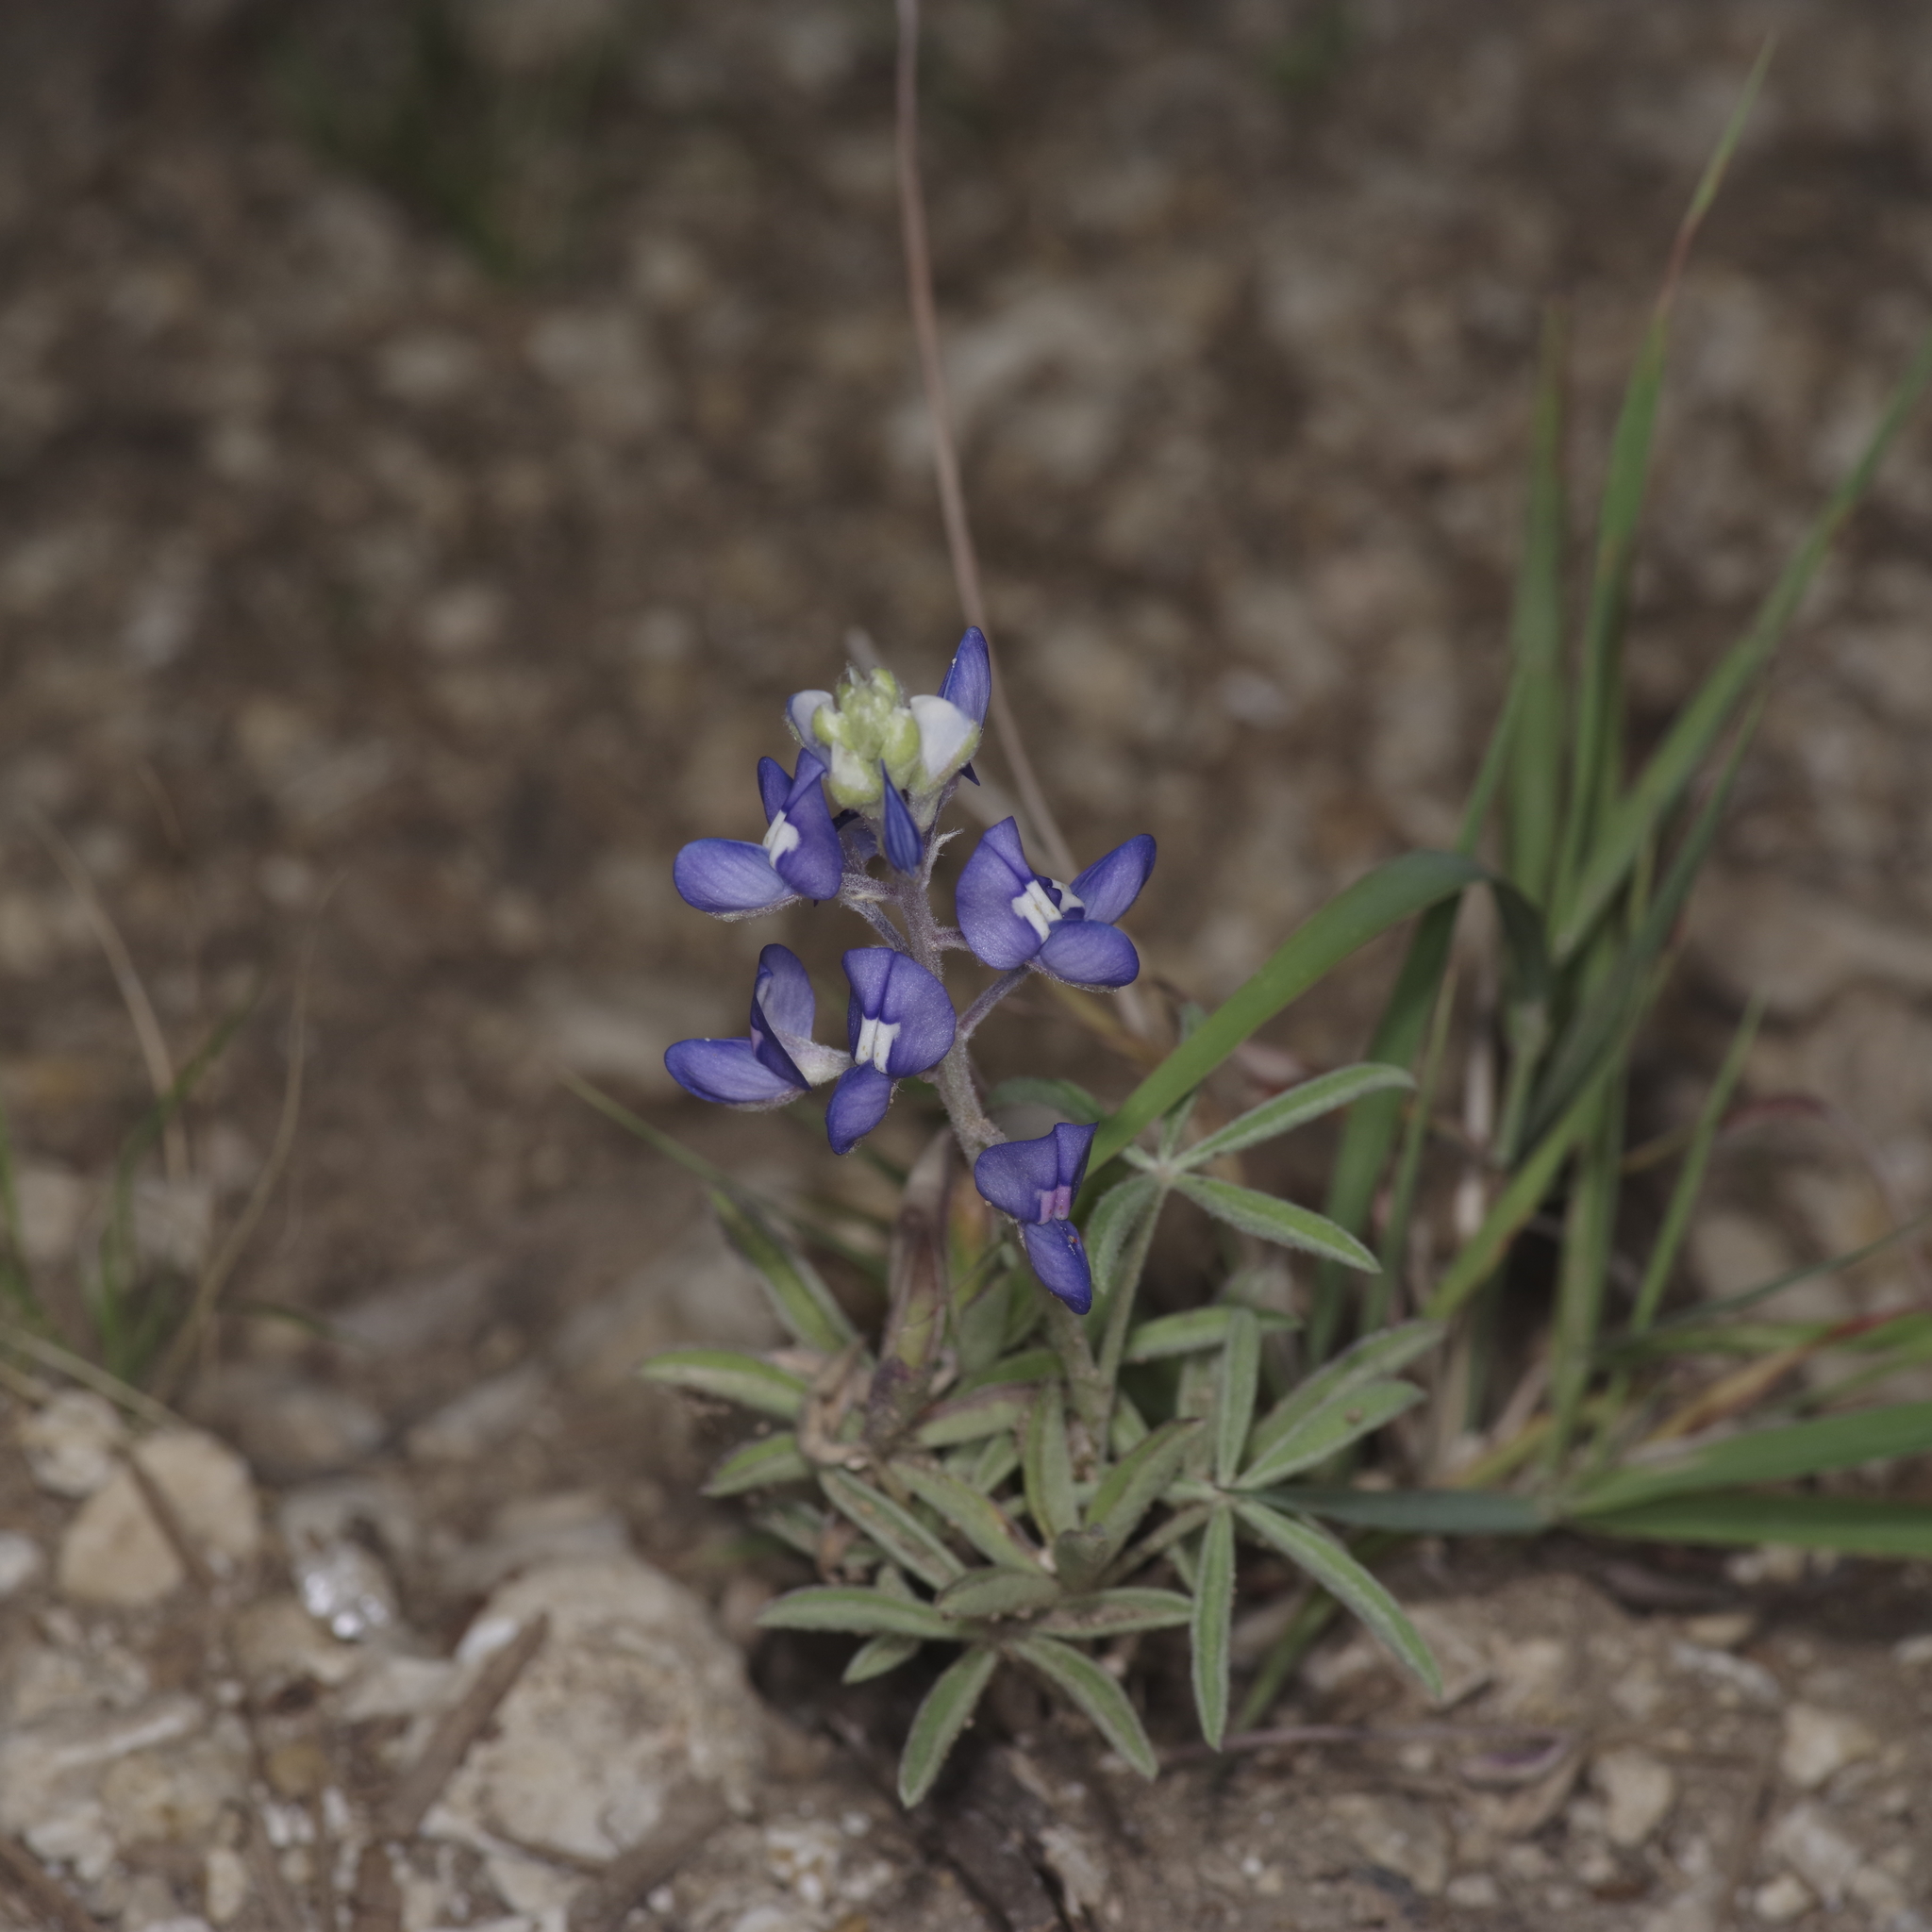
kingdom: Plantae
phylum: Tracheophyta
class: Magnoliopsida
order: Fabales
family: Fabaceae
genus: Lupinus
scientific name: Lupinus texensis
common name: Texas bluebonnet
